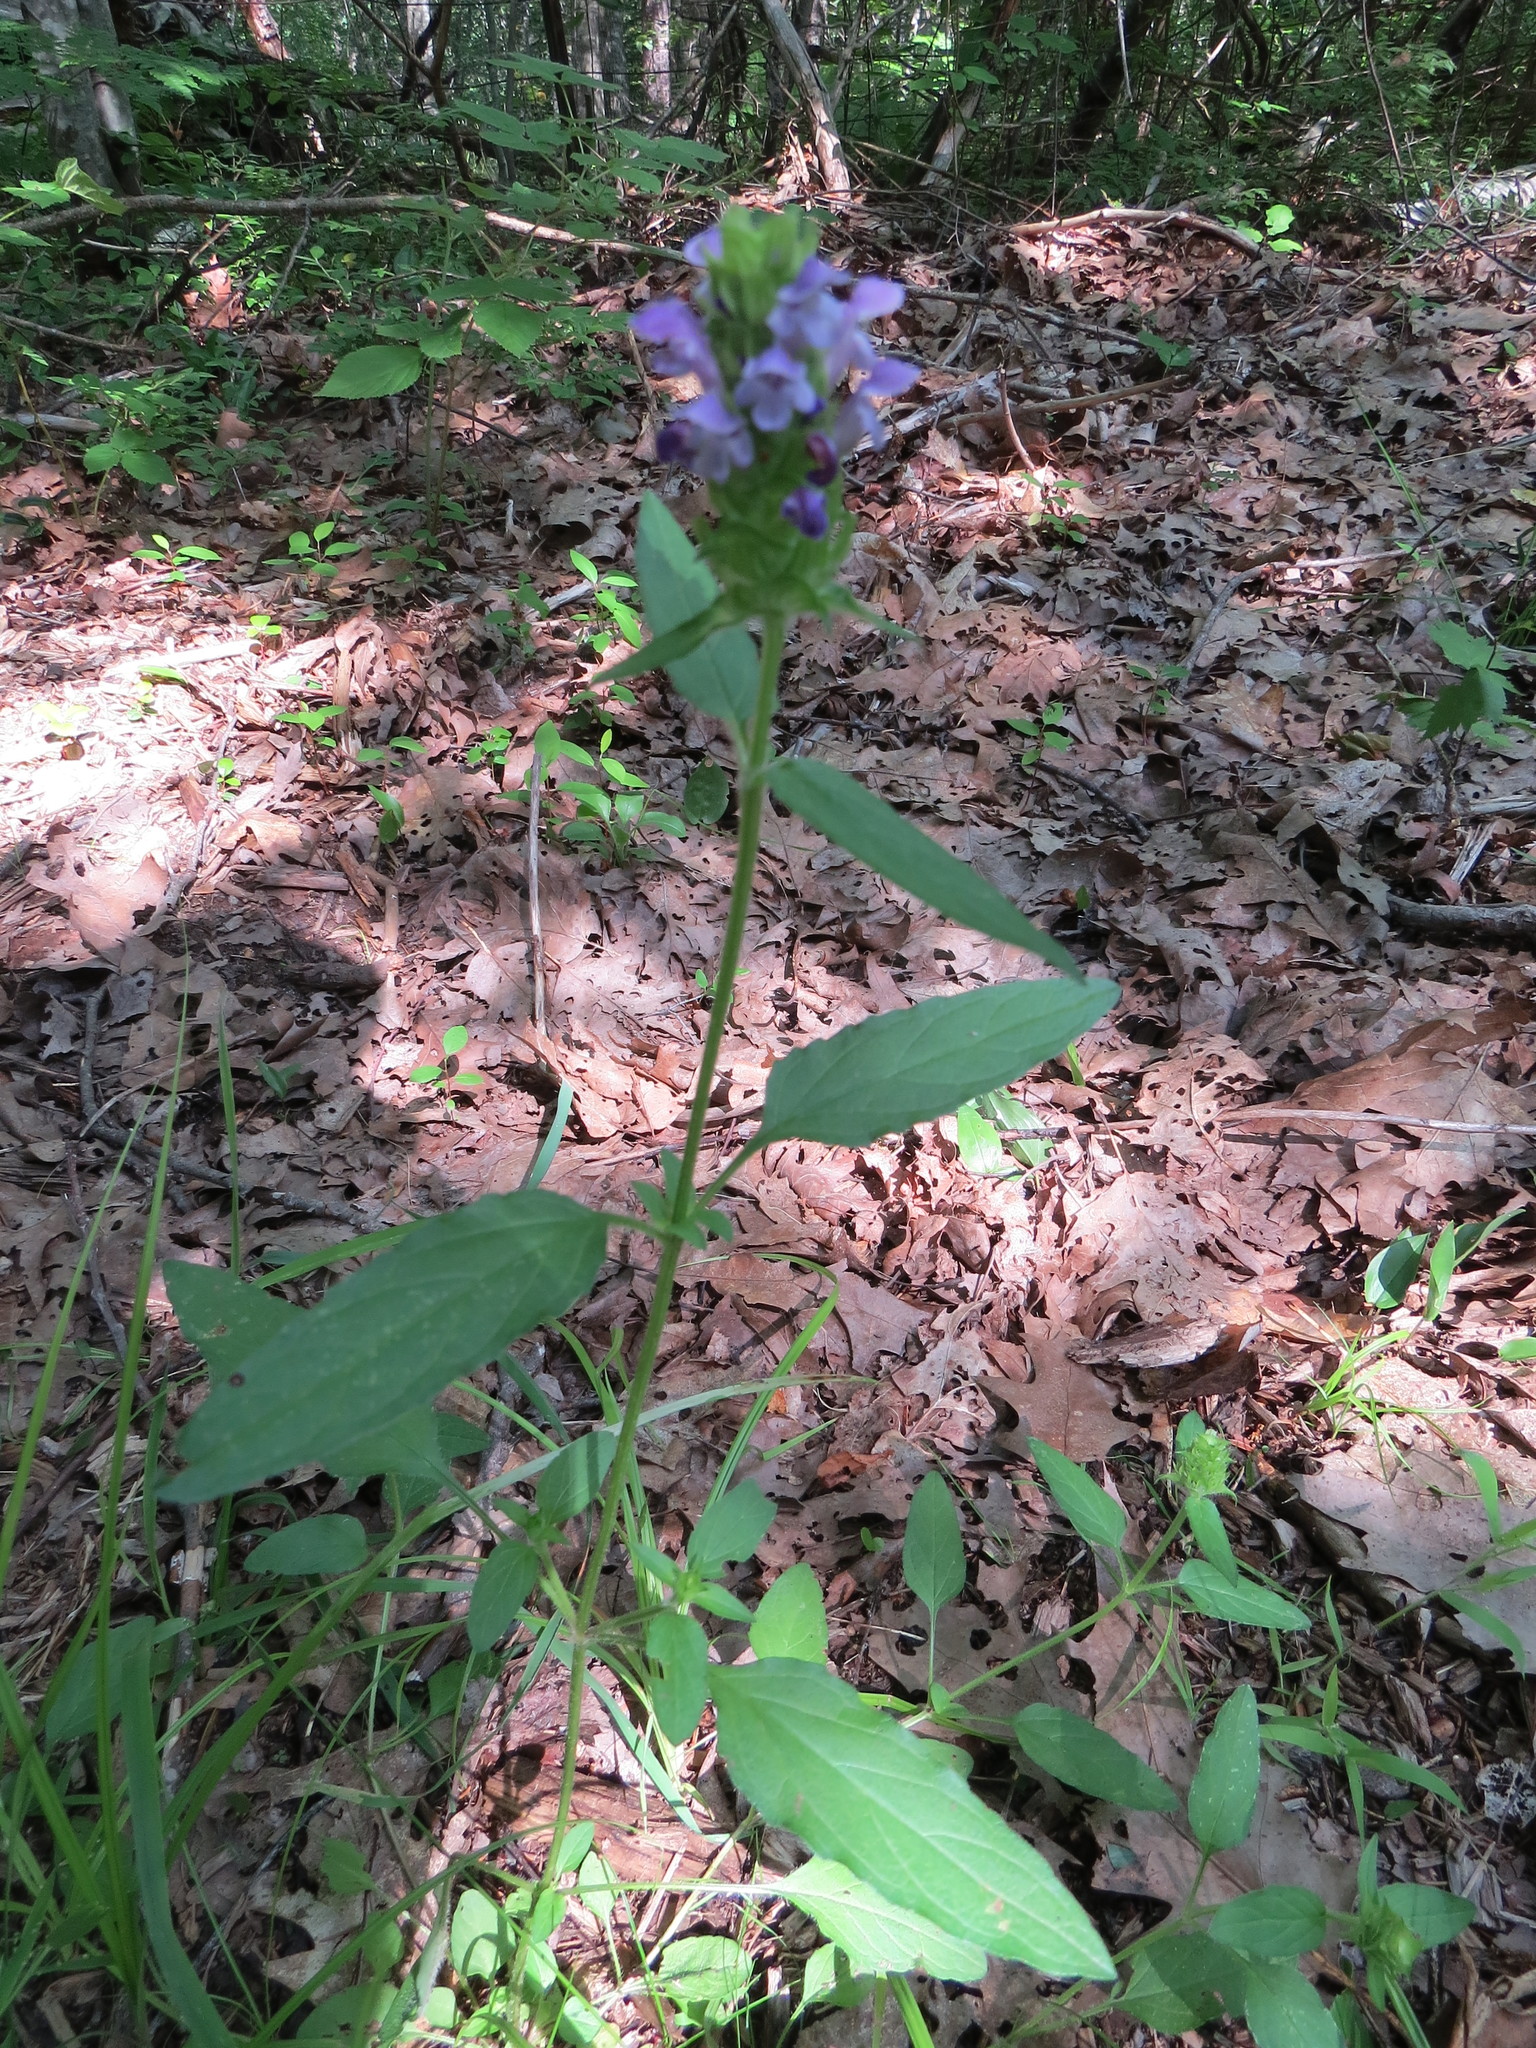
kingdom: Plantae
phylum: Tracheophyta
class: Magnoliopsida
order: Lamiales
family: Lamiaceae
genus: Prunella
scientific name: Prunella vulgaris
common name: Heal-all
